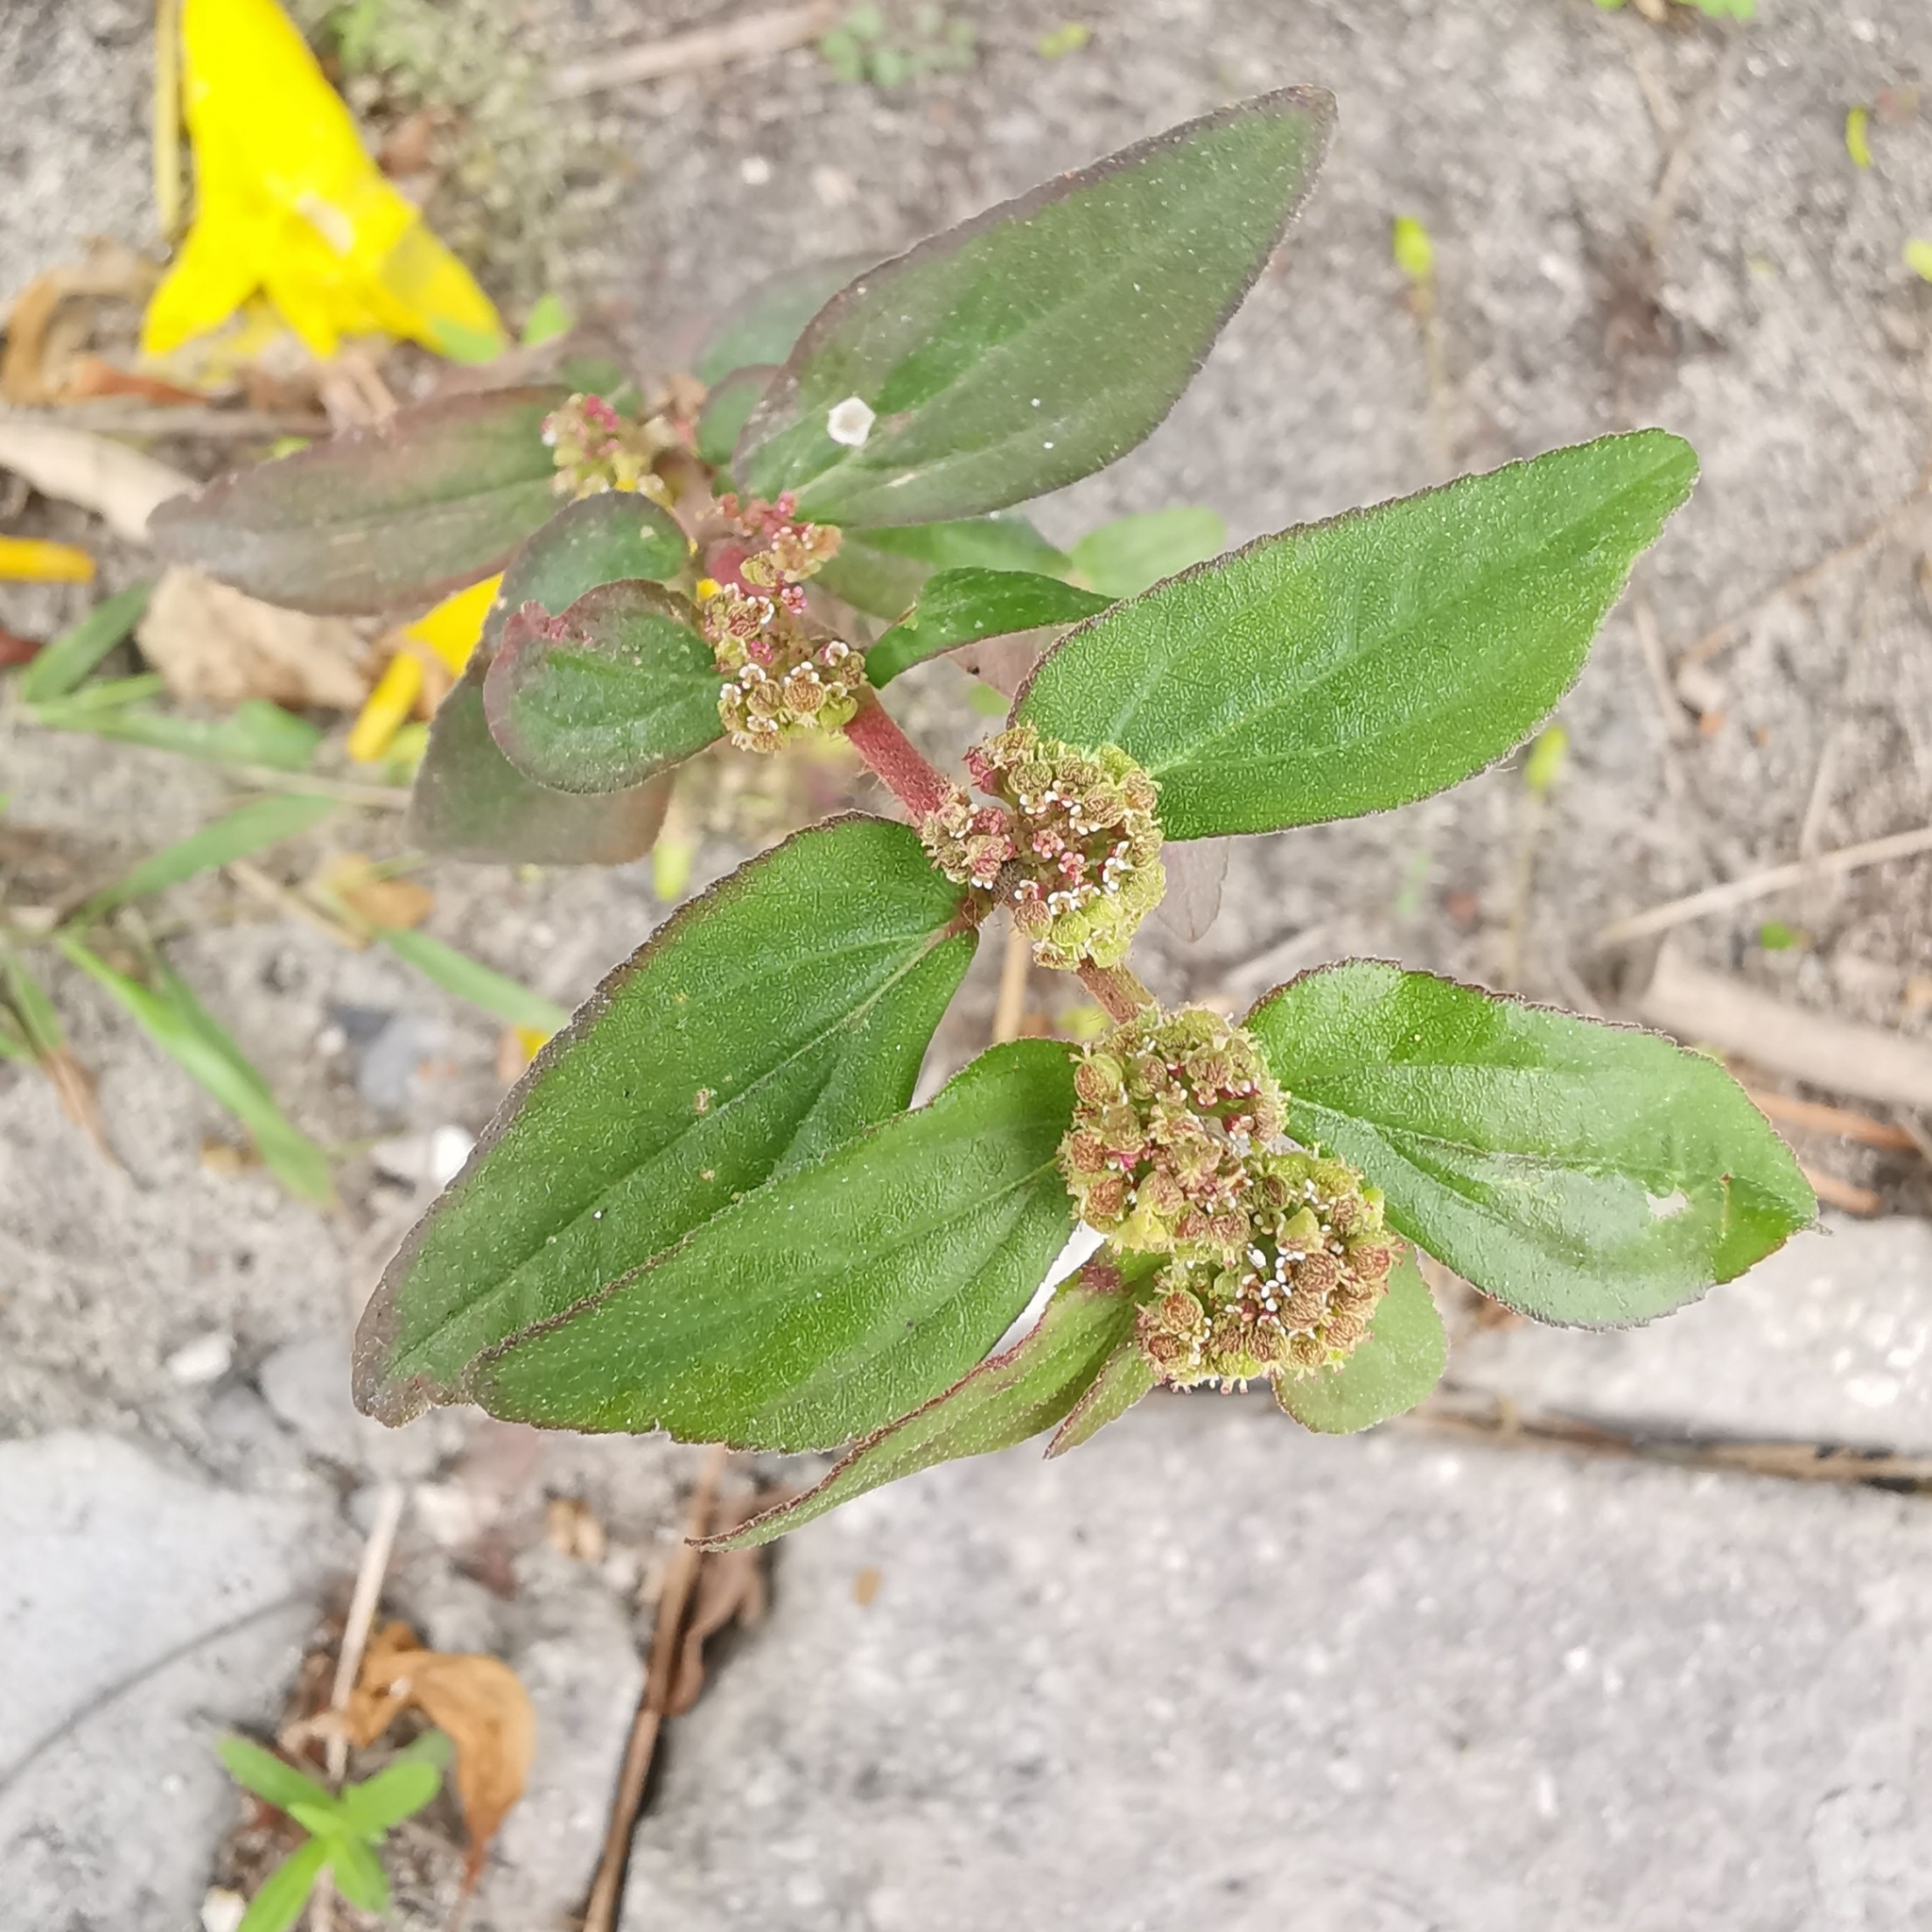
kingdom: Plantae
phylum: Tracheophyta
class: Magnoliopsida
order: Malpighiales
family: Euphorbiaceae
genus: Euphorbia
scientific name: Euphorbia hirta
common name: Pillpod sandmat
